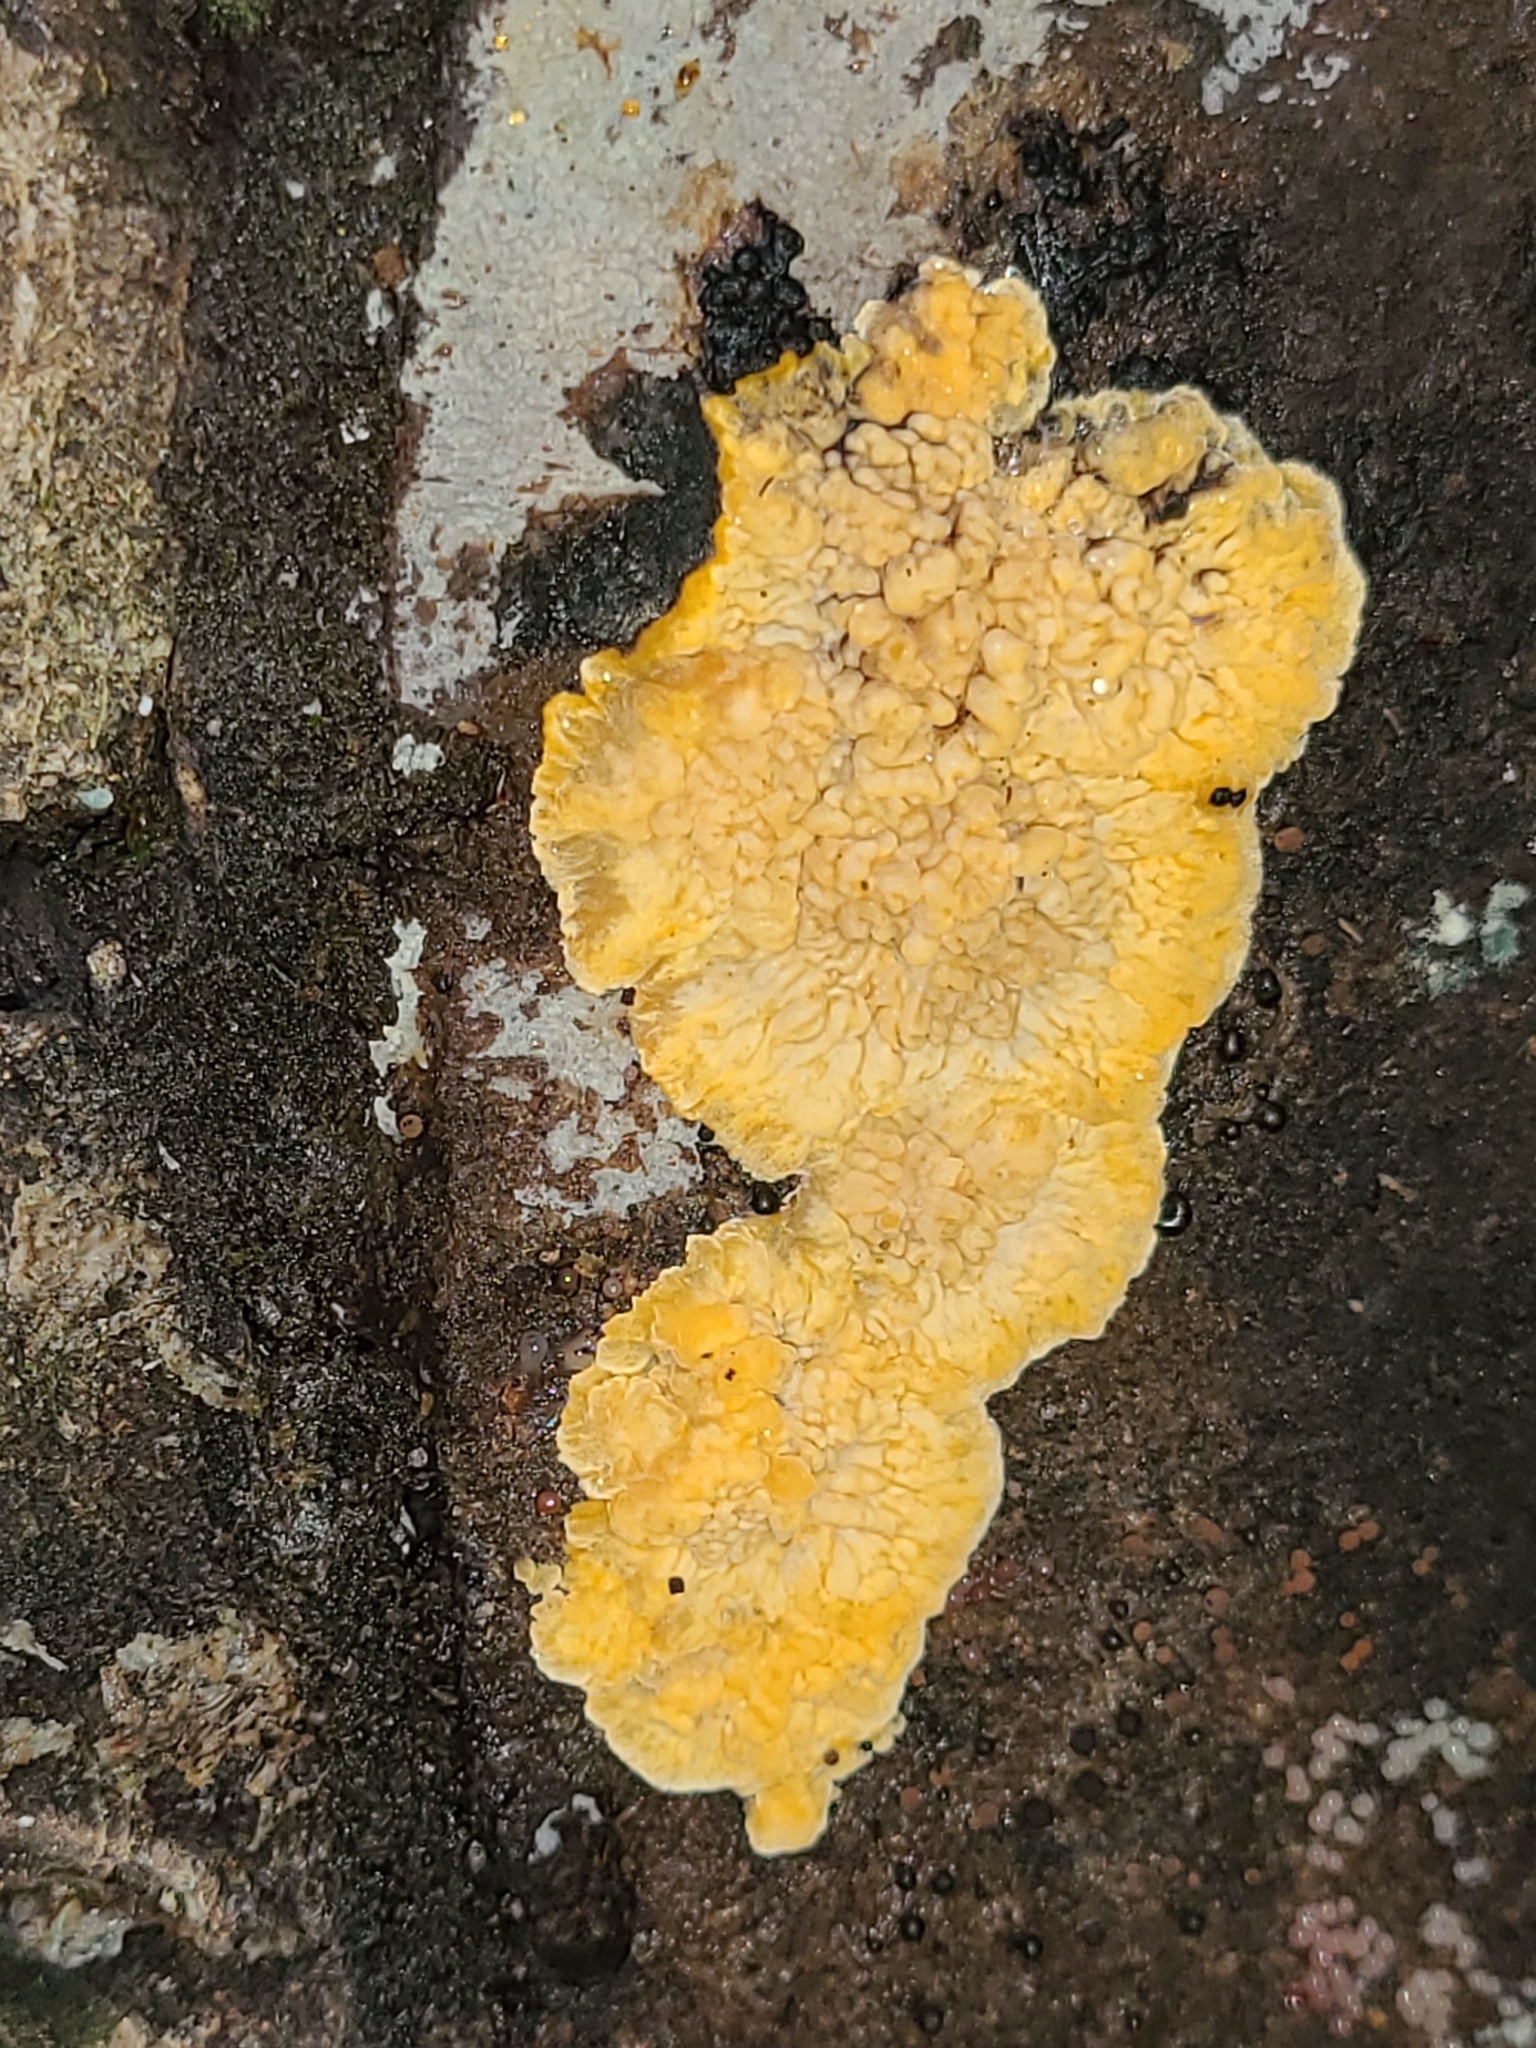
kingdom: Fungi
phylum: Basidiomycota
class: Agaricomycetes
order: Polyporales
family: Meruliaceae
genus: Phlebia
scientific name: Phlebia radiata
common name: Wrinkled crust
